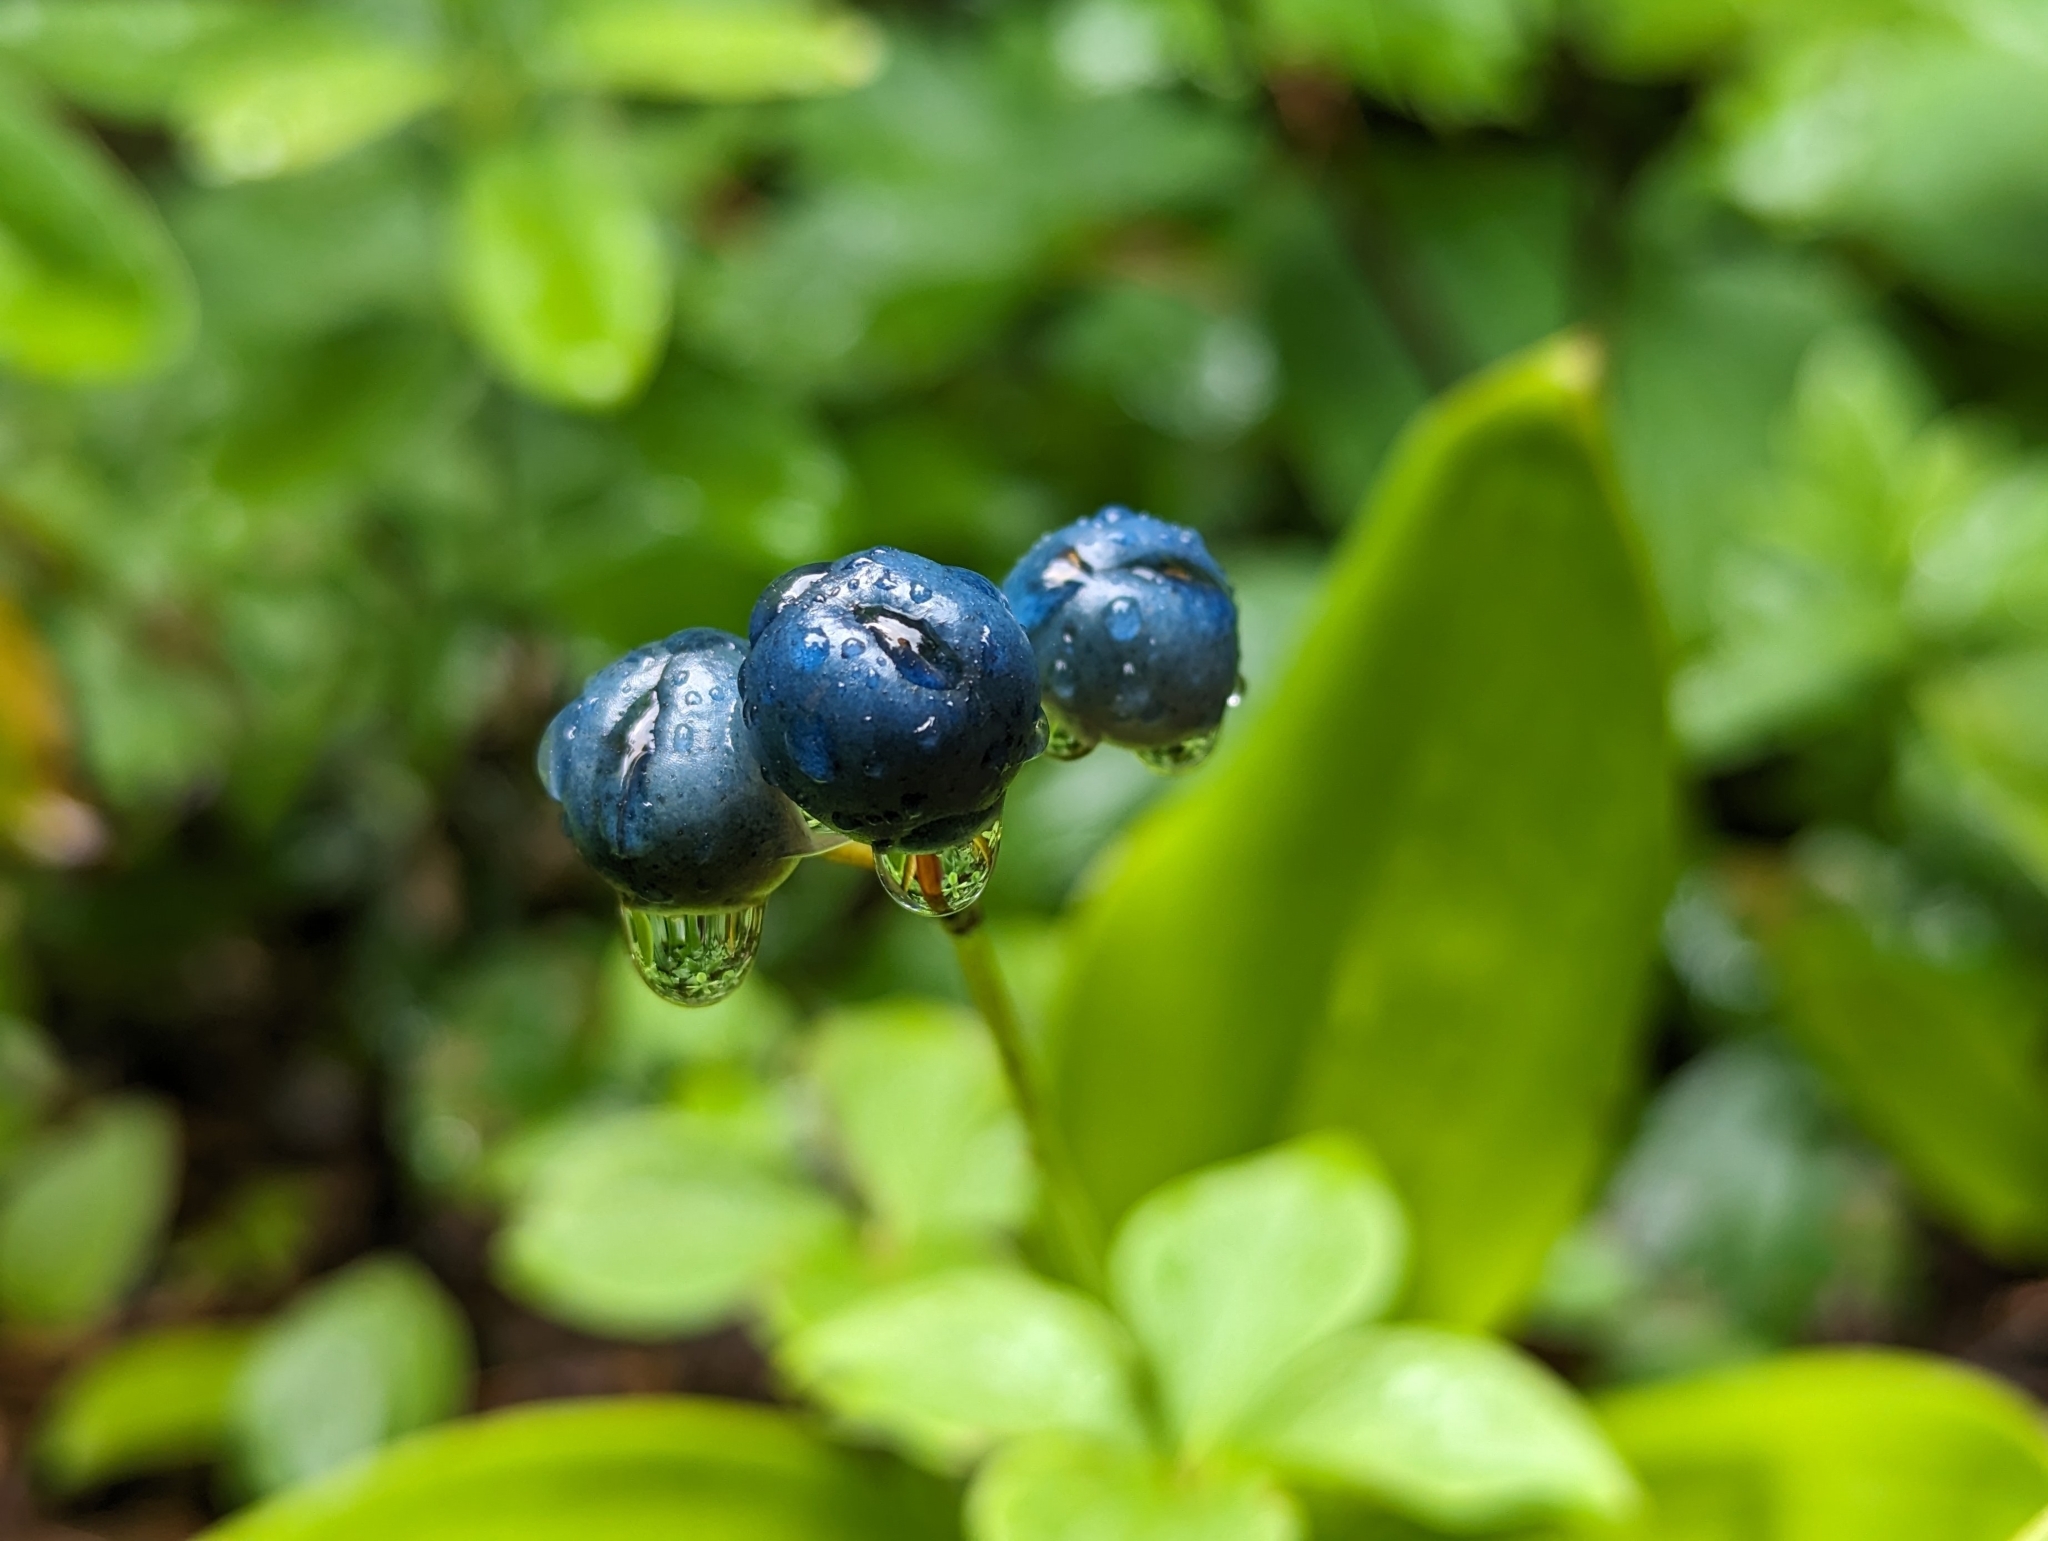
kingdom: Plantae
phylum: Tracheophyta
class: Liliopsida
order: Liliales
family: Liliaceae
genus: Clintonia
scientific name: Clintonia borealis
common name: Yellow clintonia
